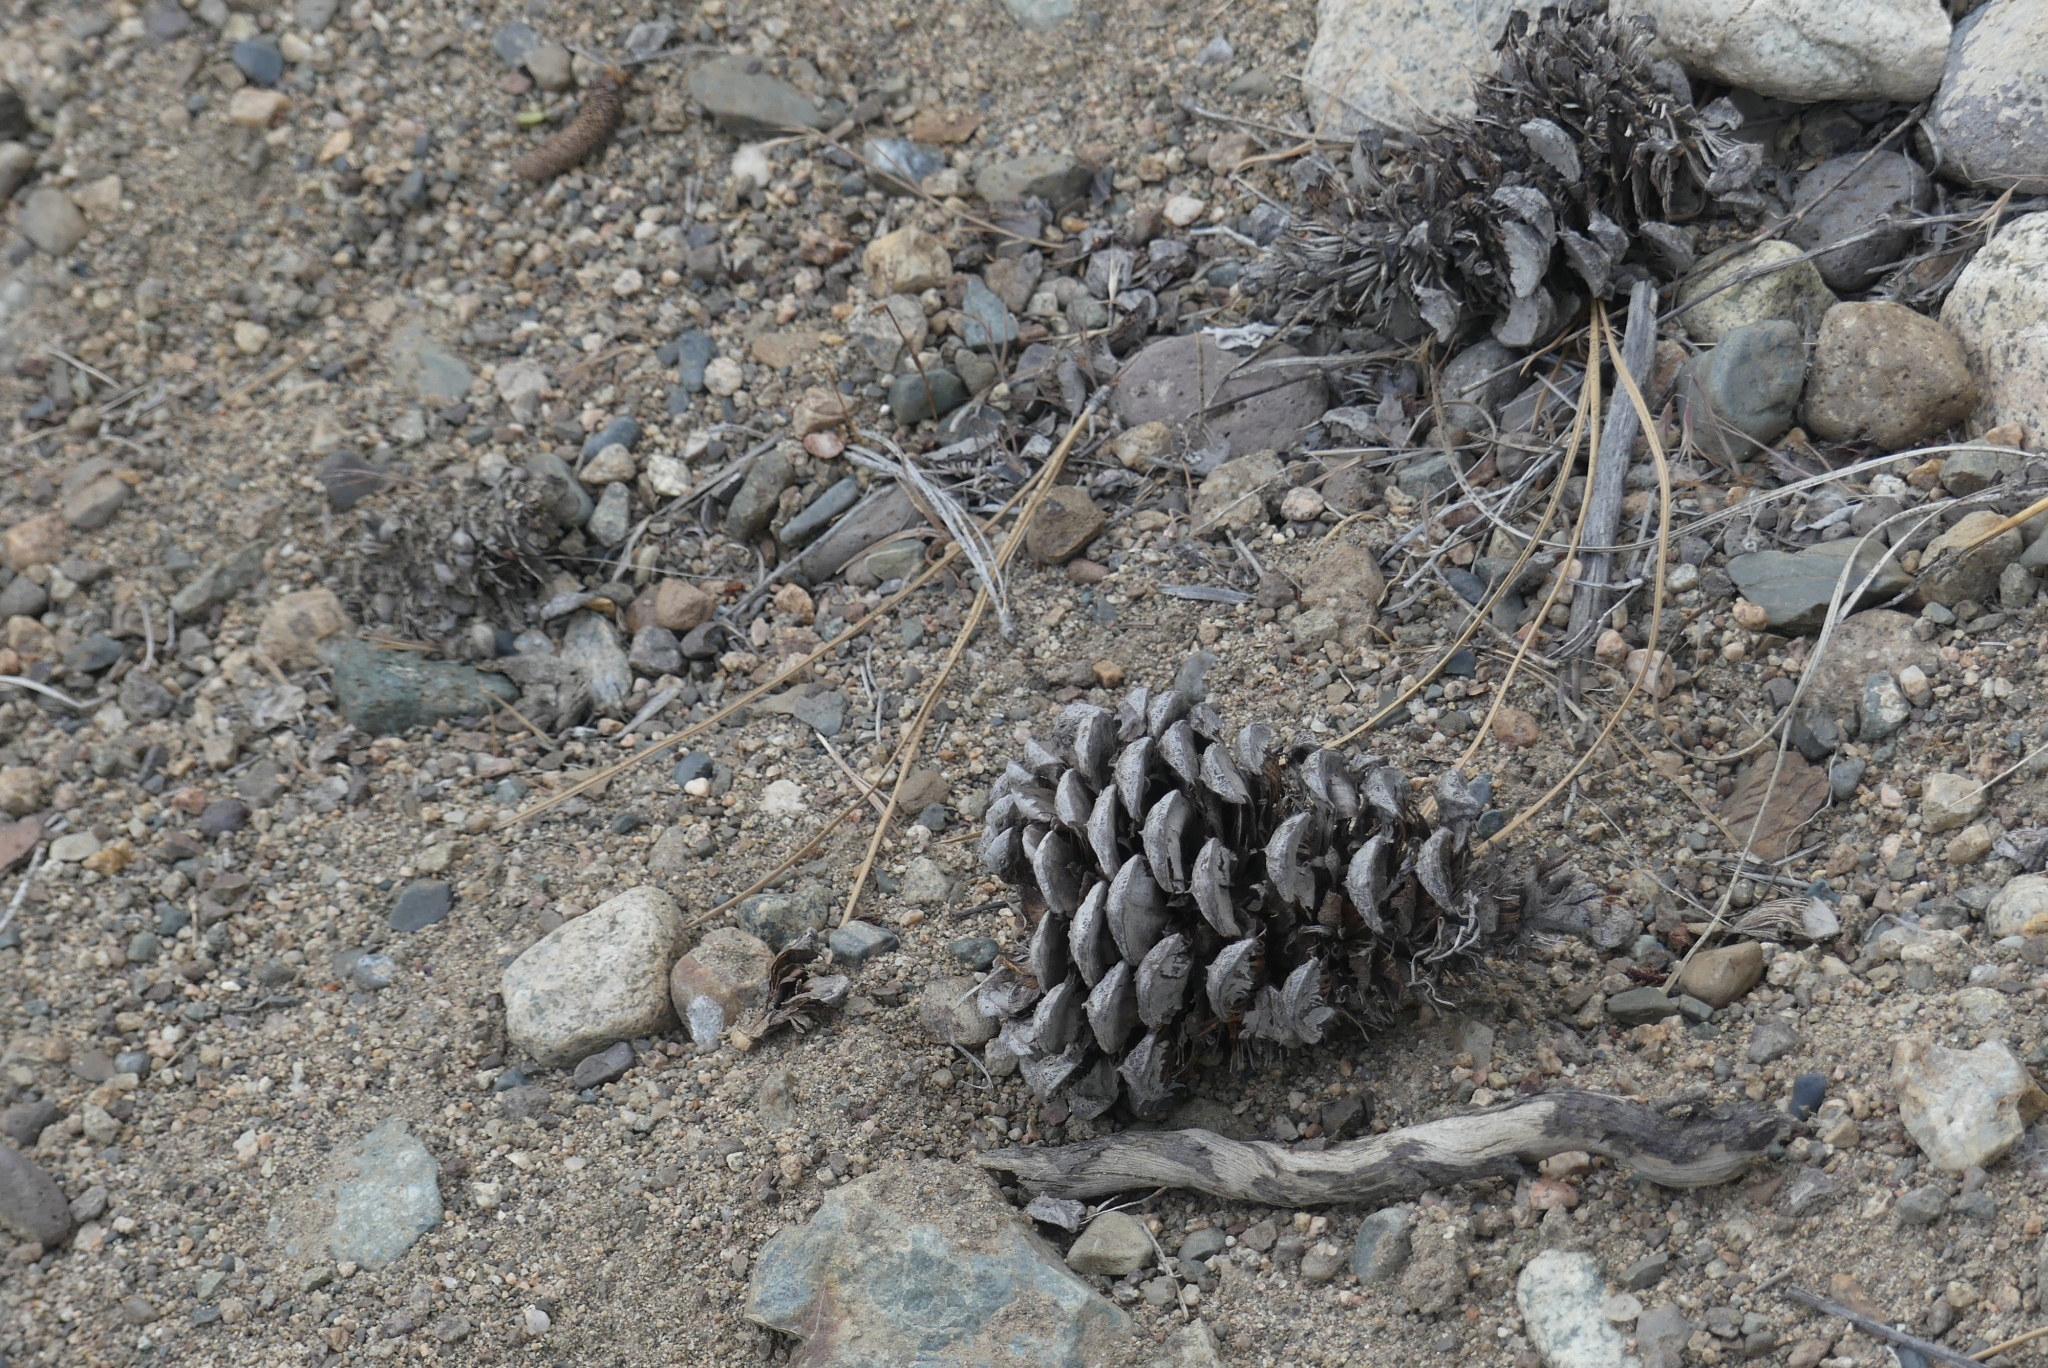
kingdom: Plantae
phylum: Tracheophyta
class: Pinopsida
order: Pinales
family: Pinaceae
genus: Pinus
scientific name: Pinus ponderosa
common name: Western yellow-pine
